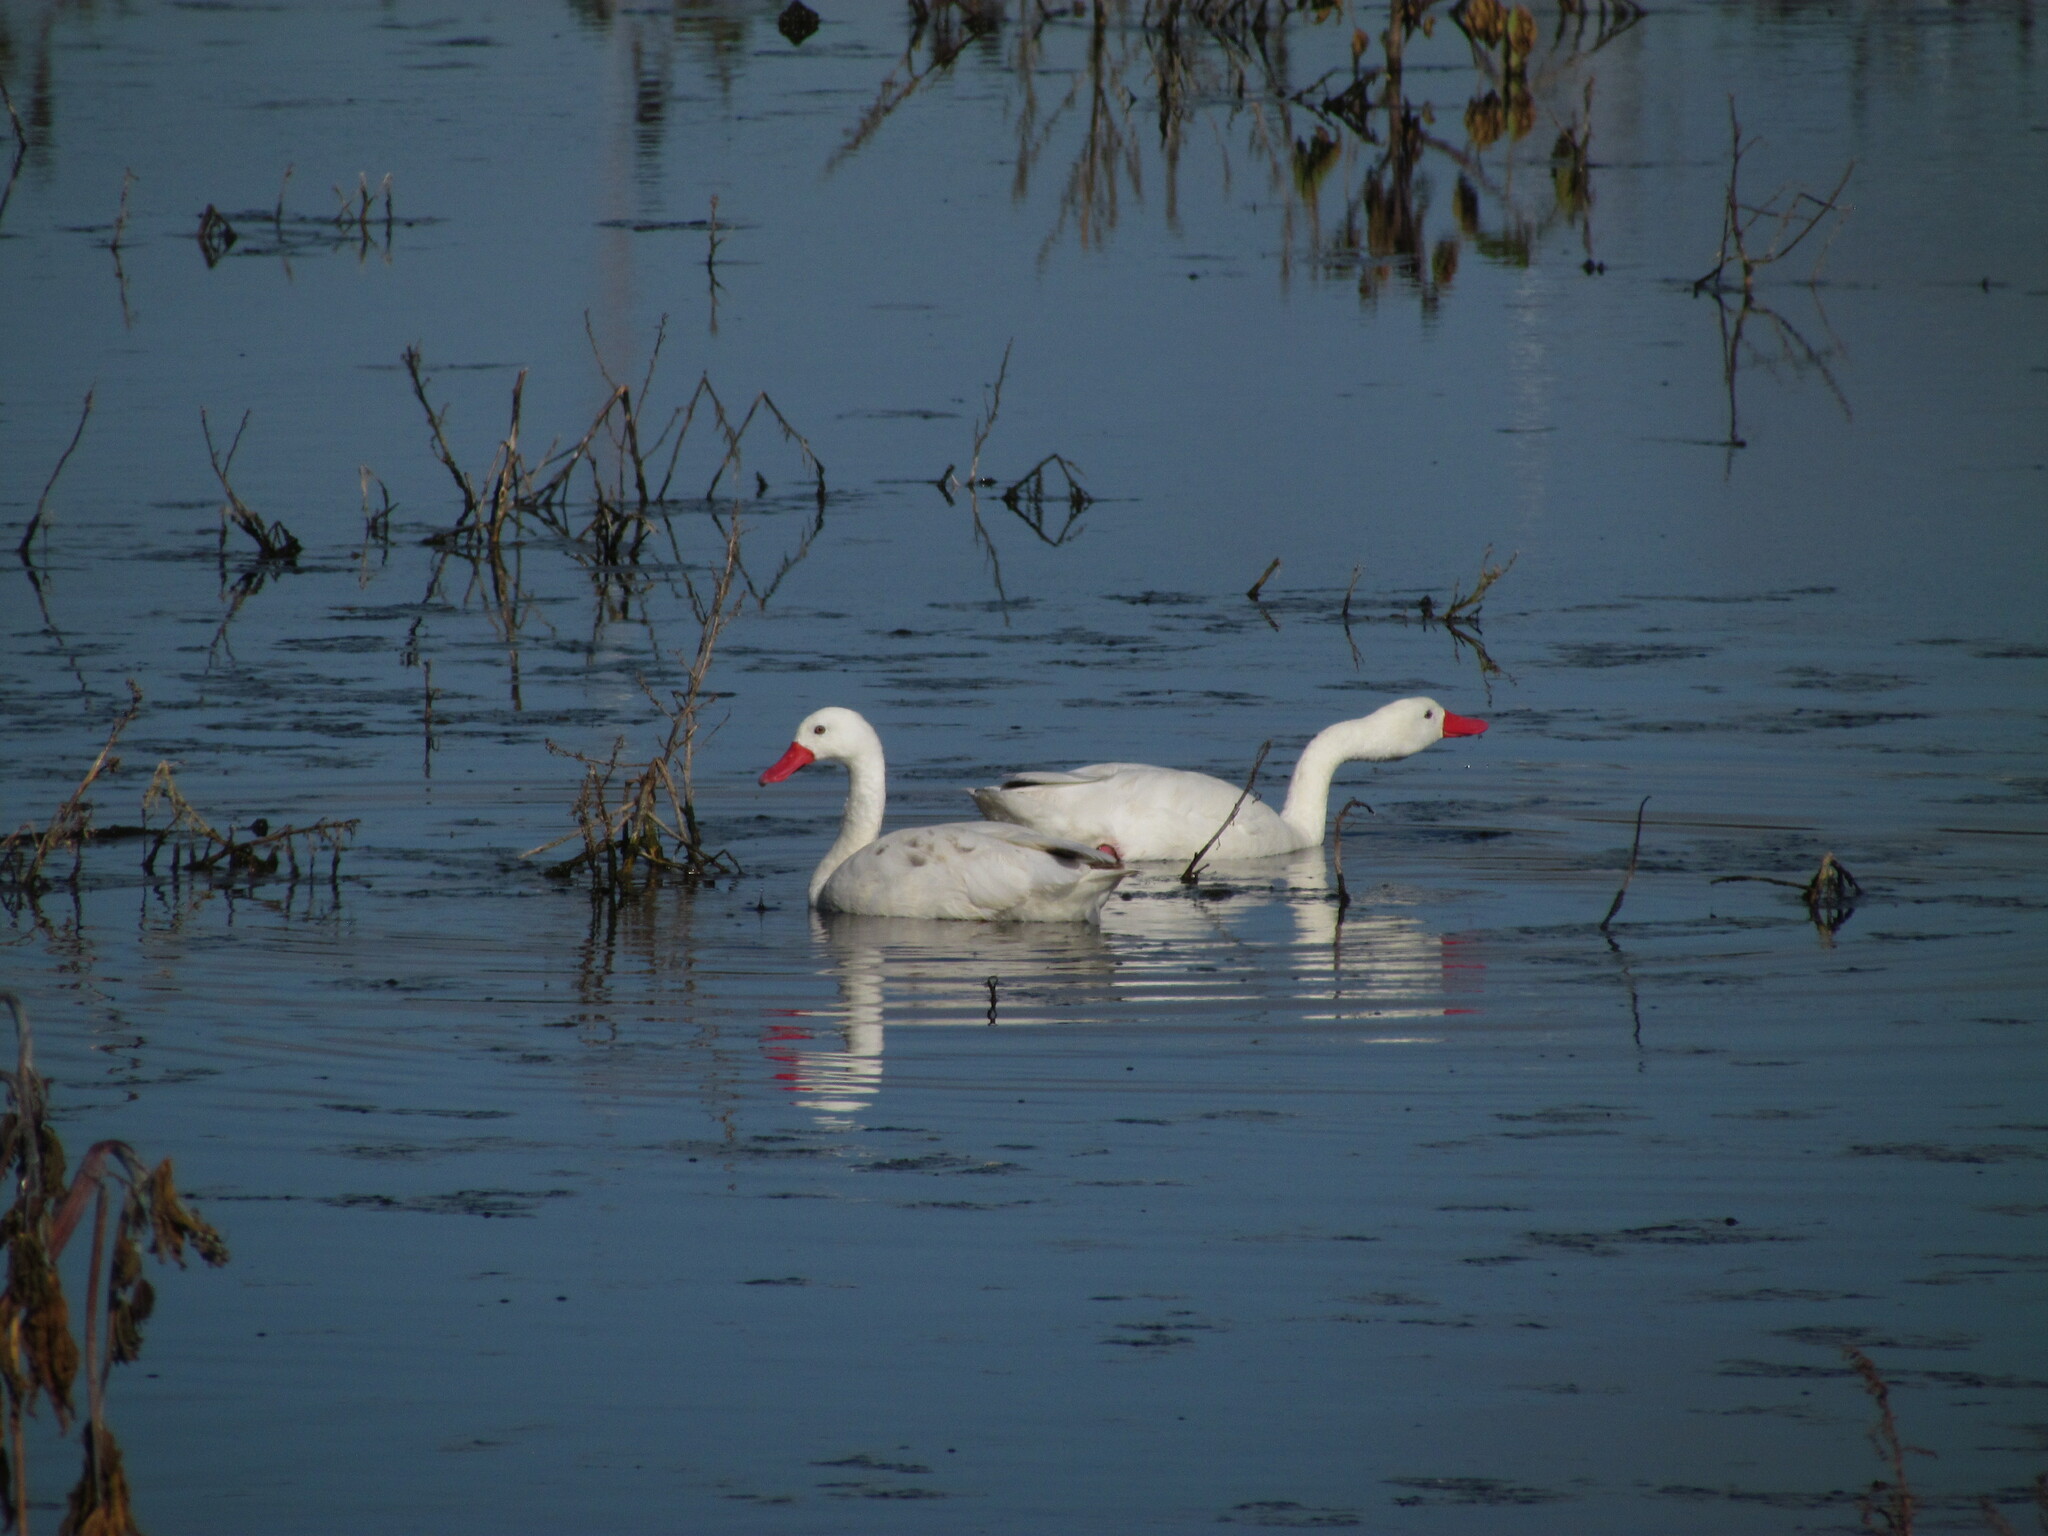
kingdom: Animalia
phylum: Chordata
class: Aves
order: Anseriformes
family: Anatidae
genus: Coscoroba
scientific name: Coscoroba coscoroba
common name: Coscoroba swan
